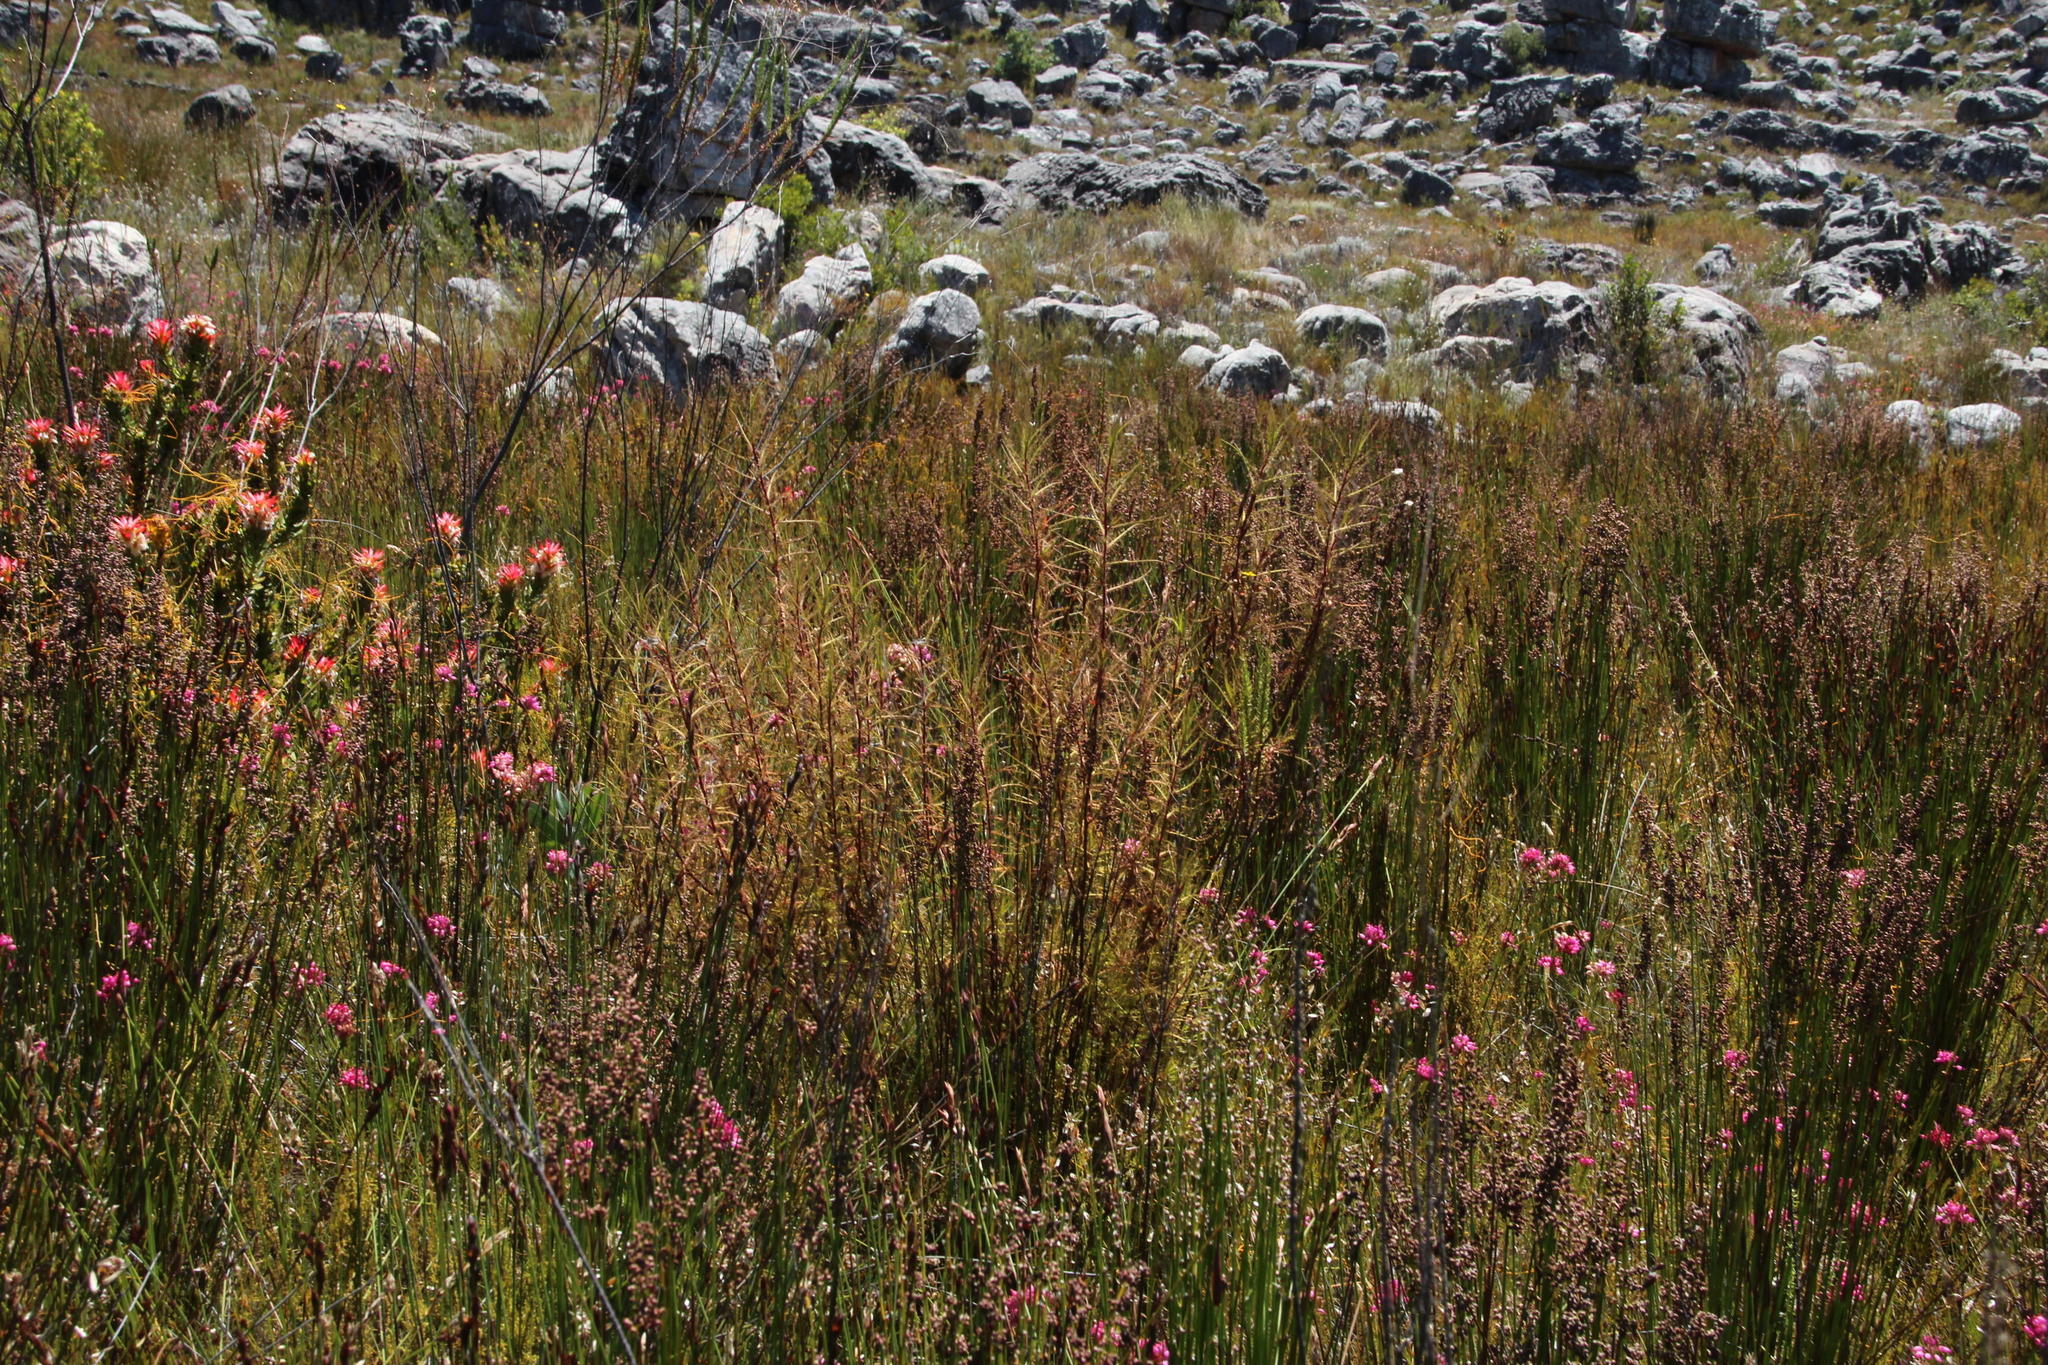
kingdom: Plantae
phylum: Tracheophyta
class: Magnoliopsida
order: Ericales
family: Roridulaceae
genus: Roridula
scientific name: Roridula dentata
